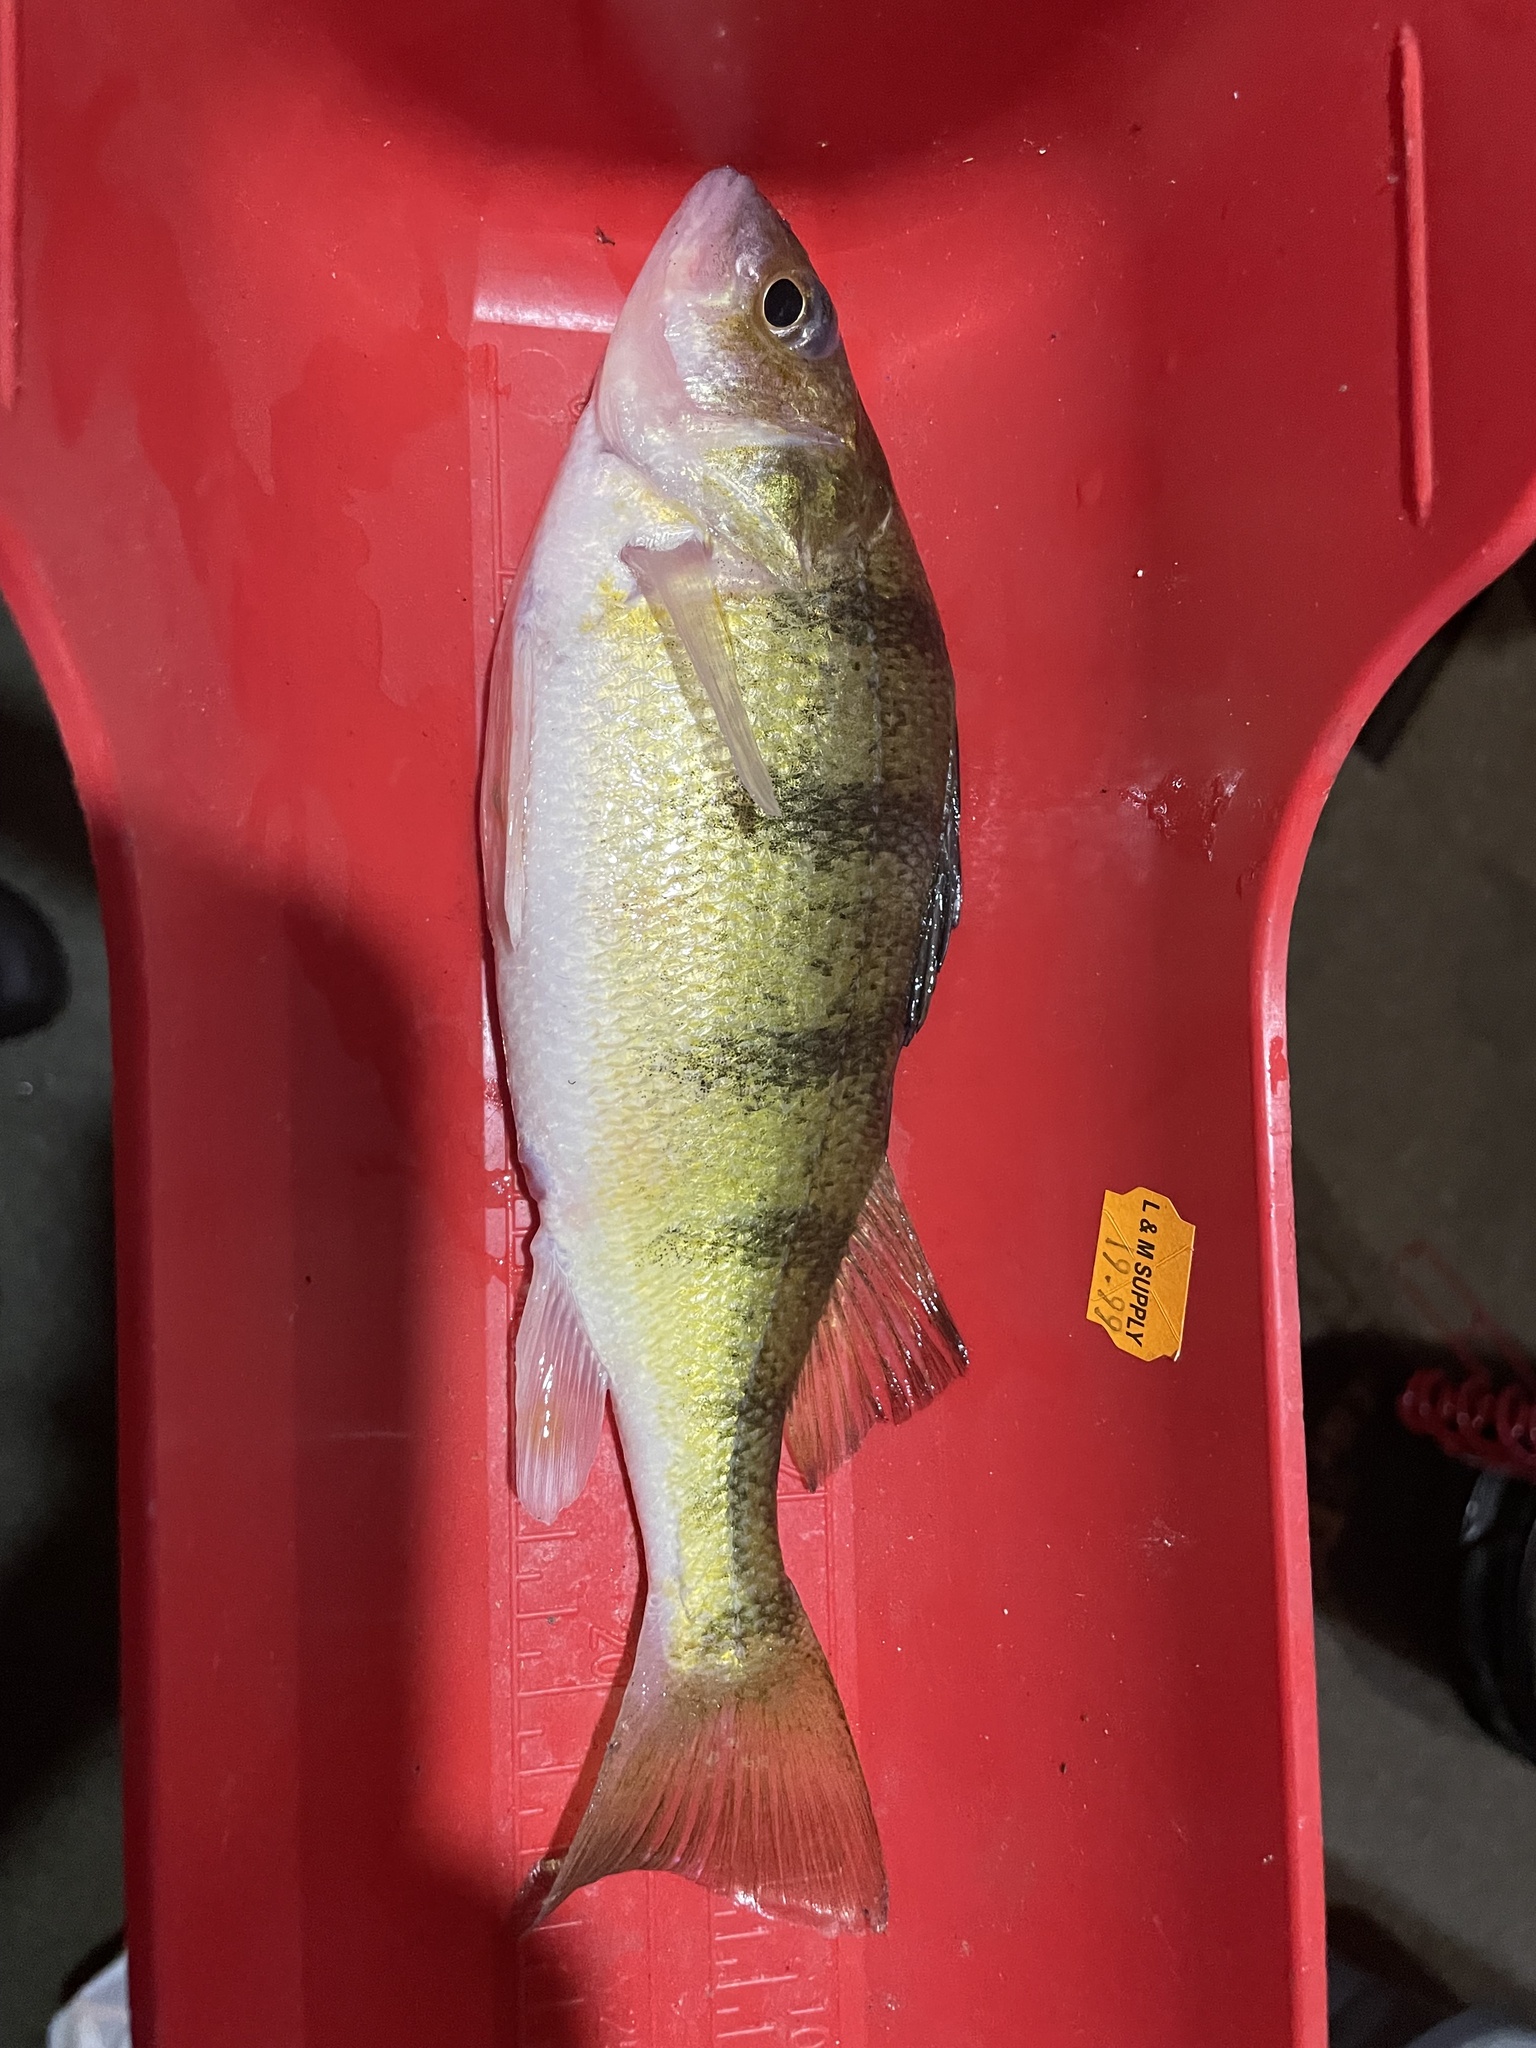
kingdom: Animalia
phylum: Chordata
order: Perciformes
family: Percidae
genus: Perca
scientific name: Perca flavescens
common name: Yellow perch
